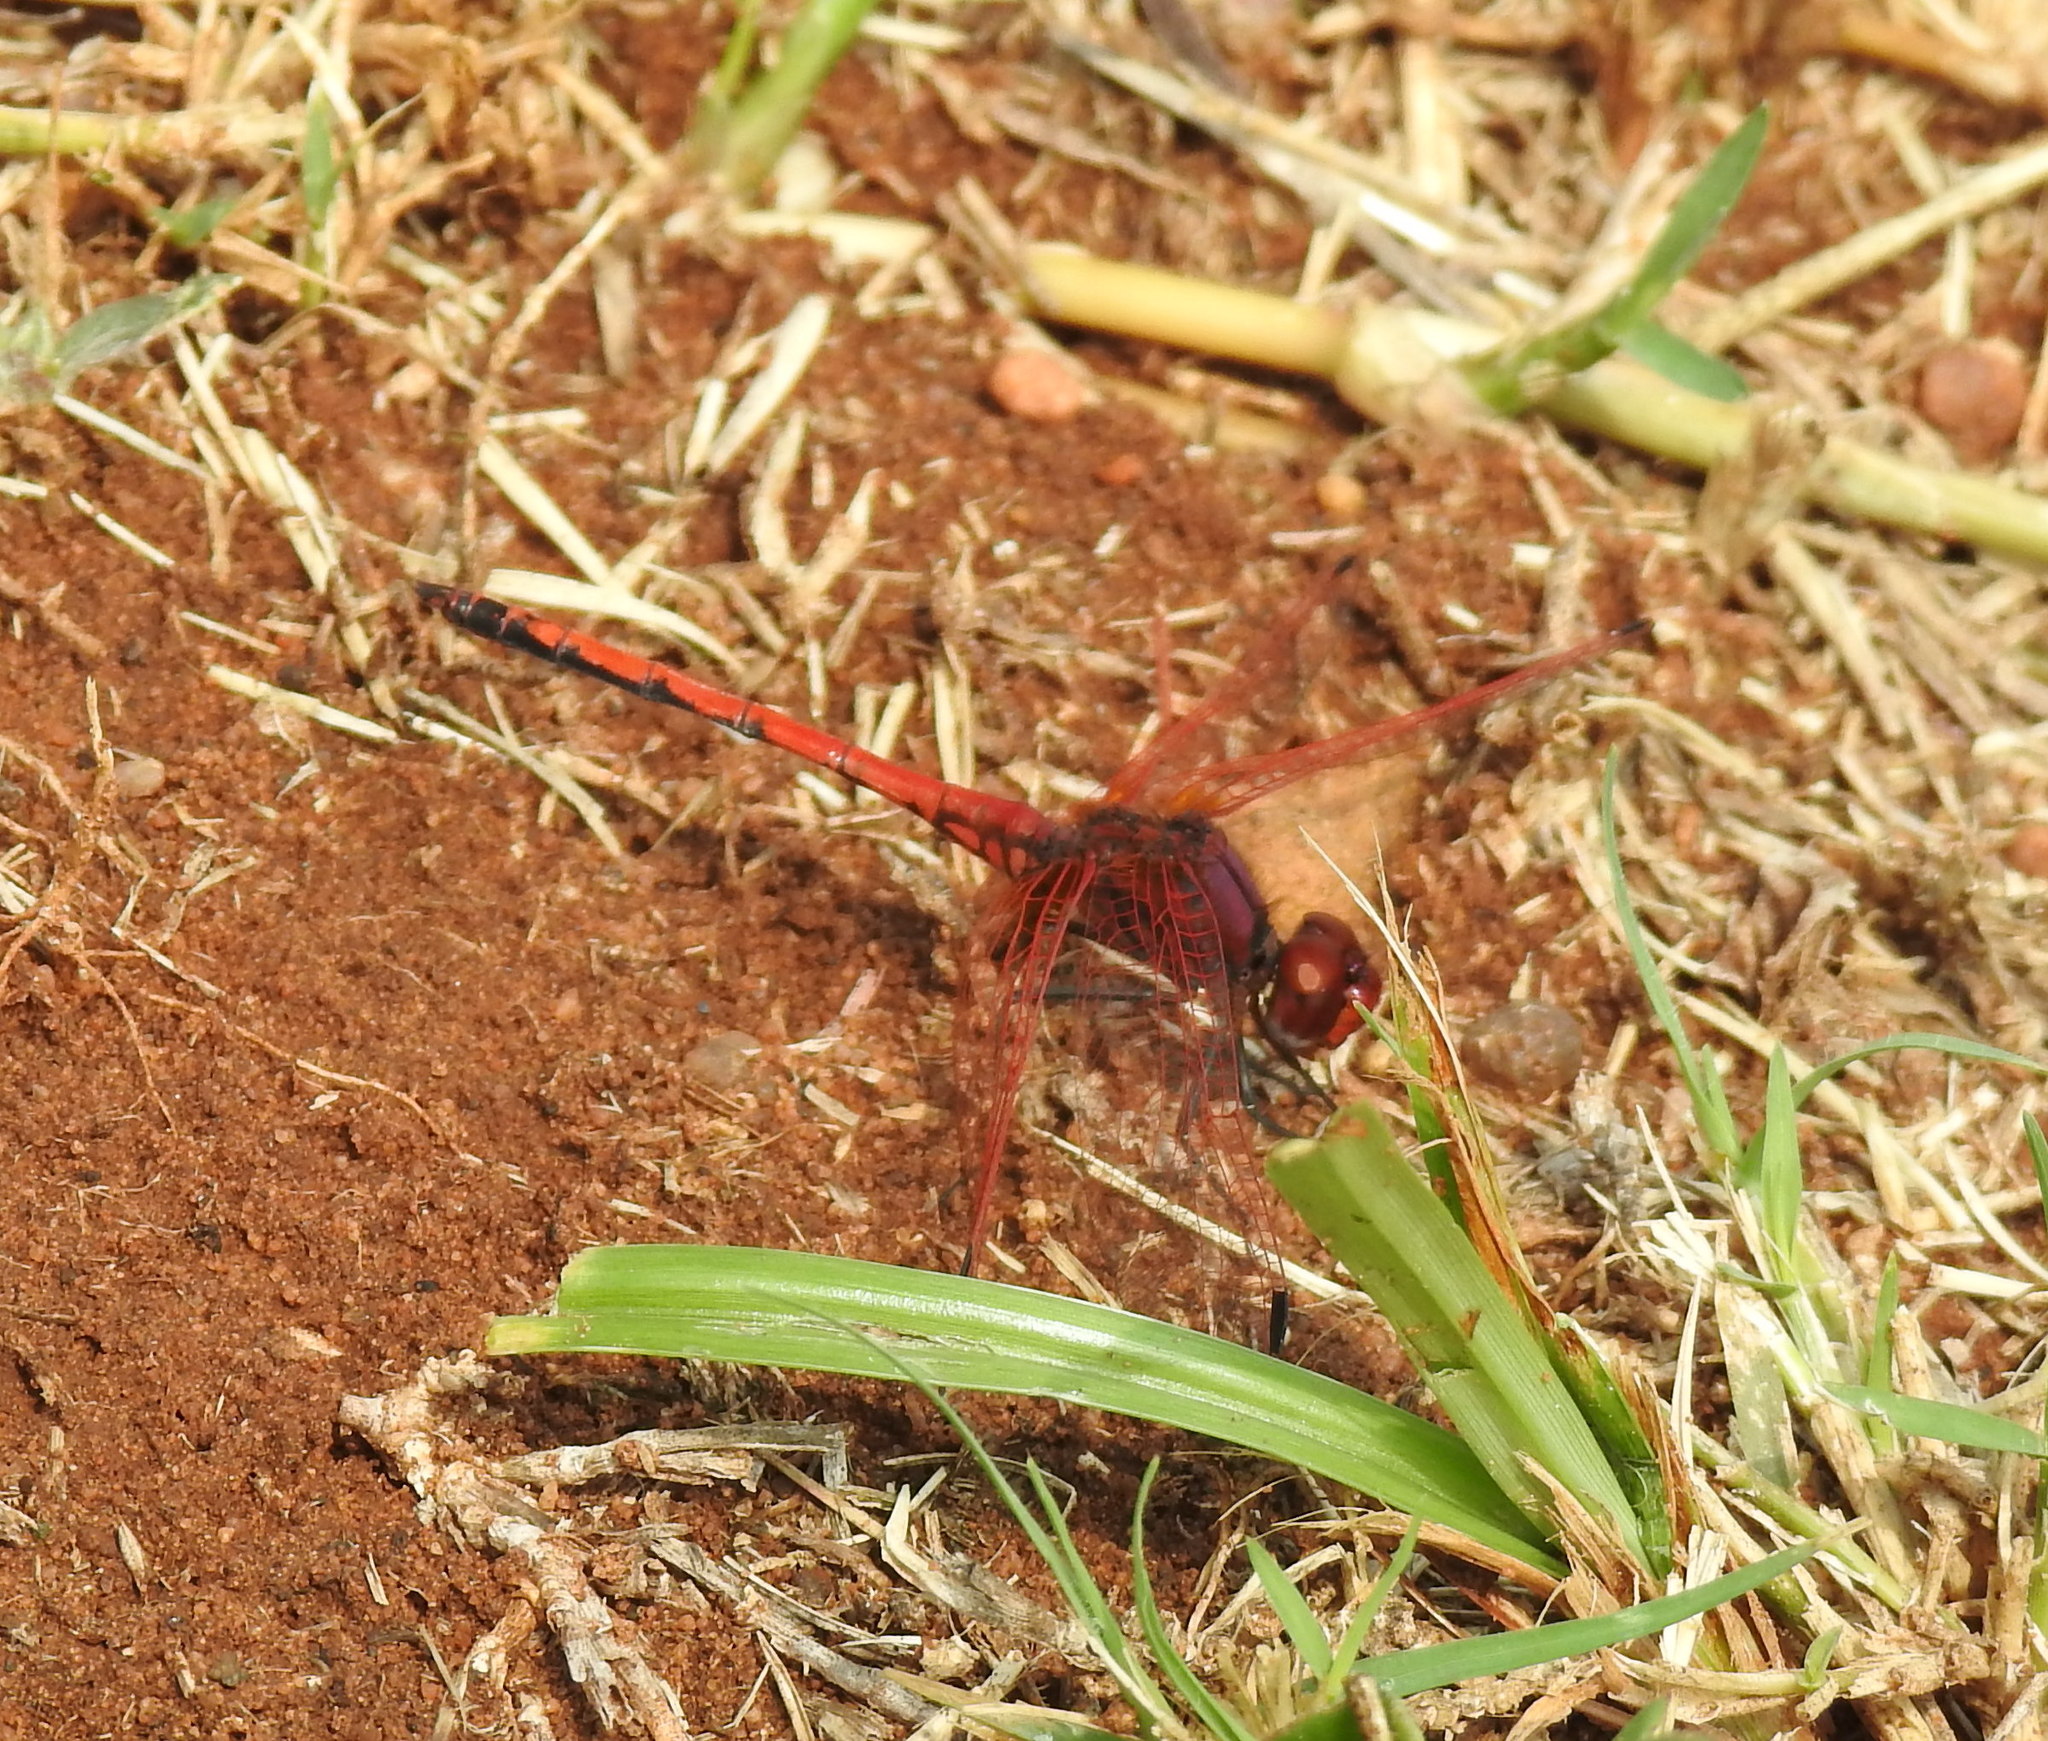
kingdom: Animalia
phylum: Arthropoda
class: Insecta
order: Odonata
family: Libellulidae
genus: Trithemis
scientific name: Trithemis arteriosa
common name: Red-veined dropwing
